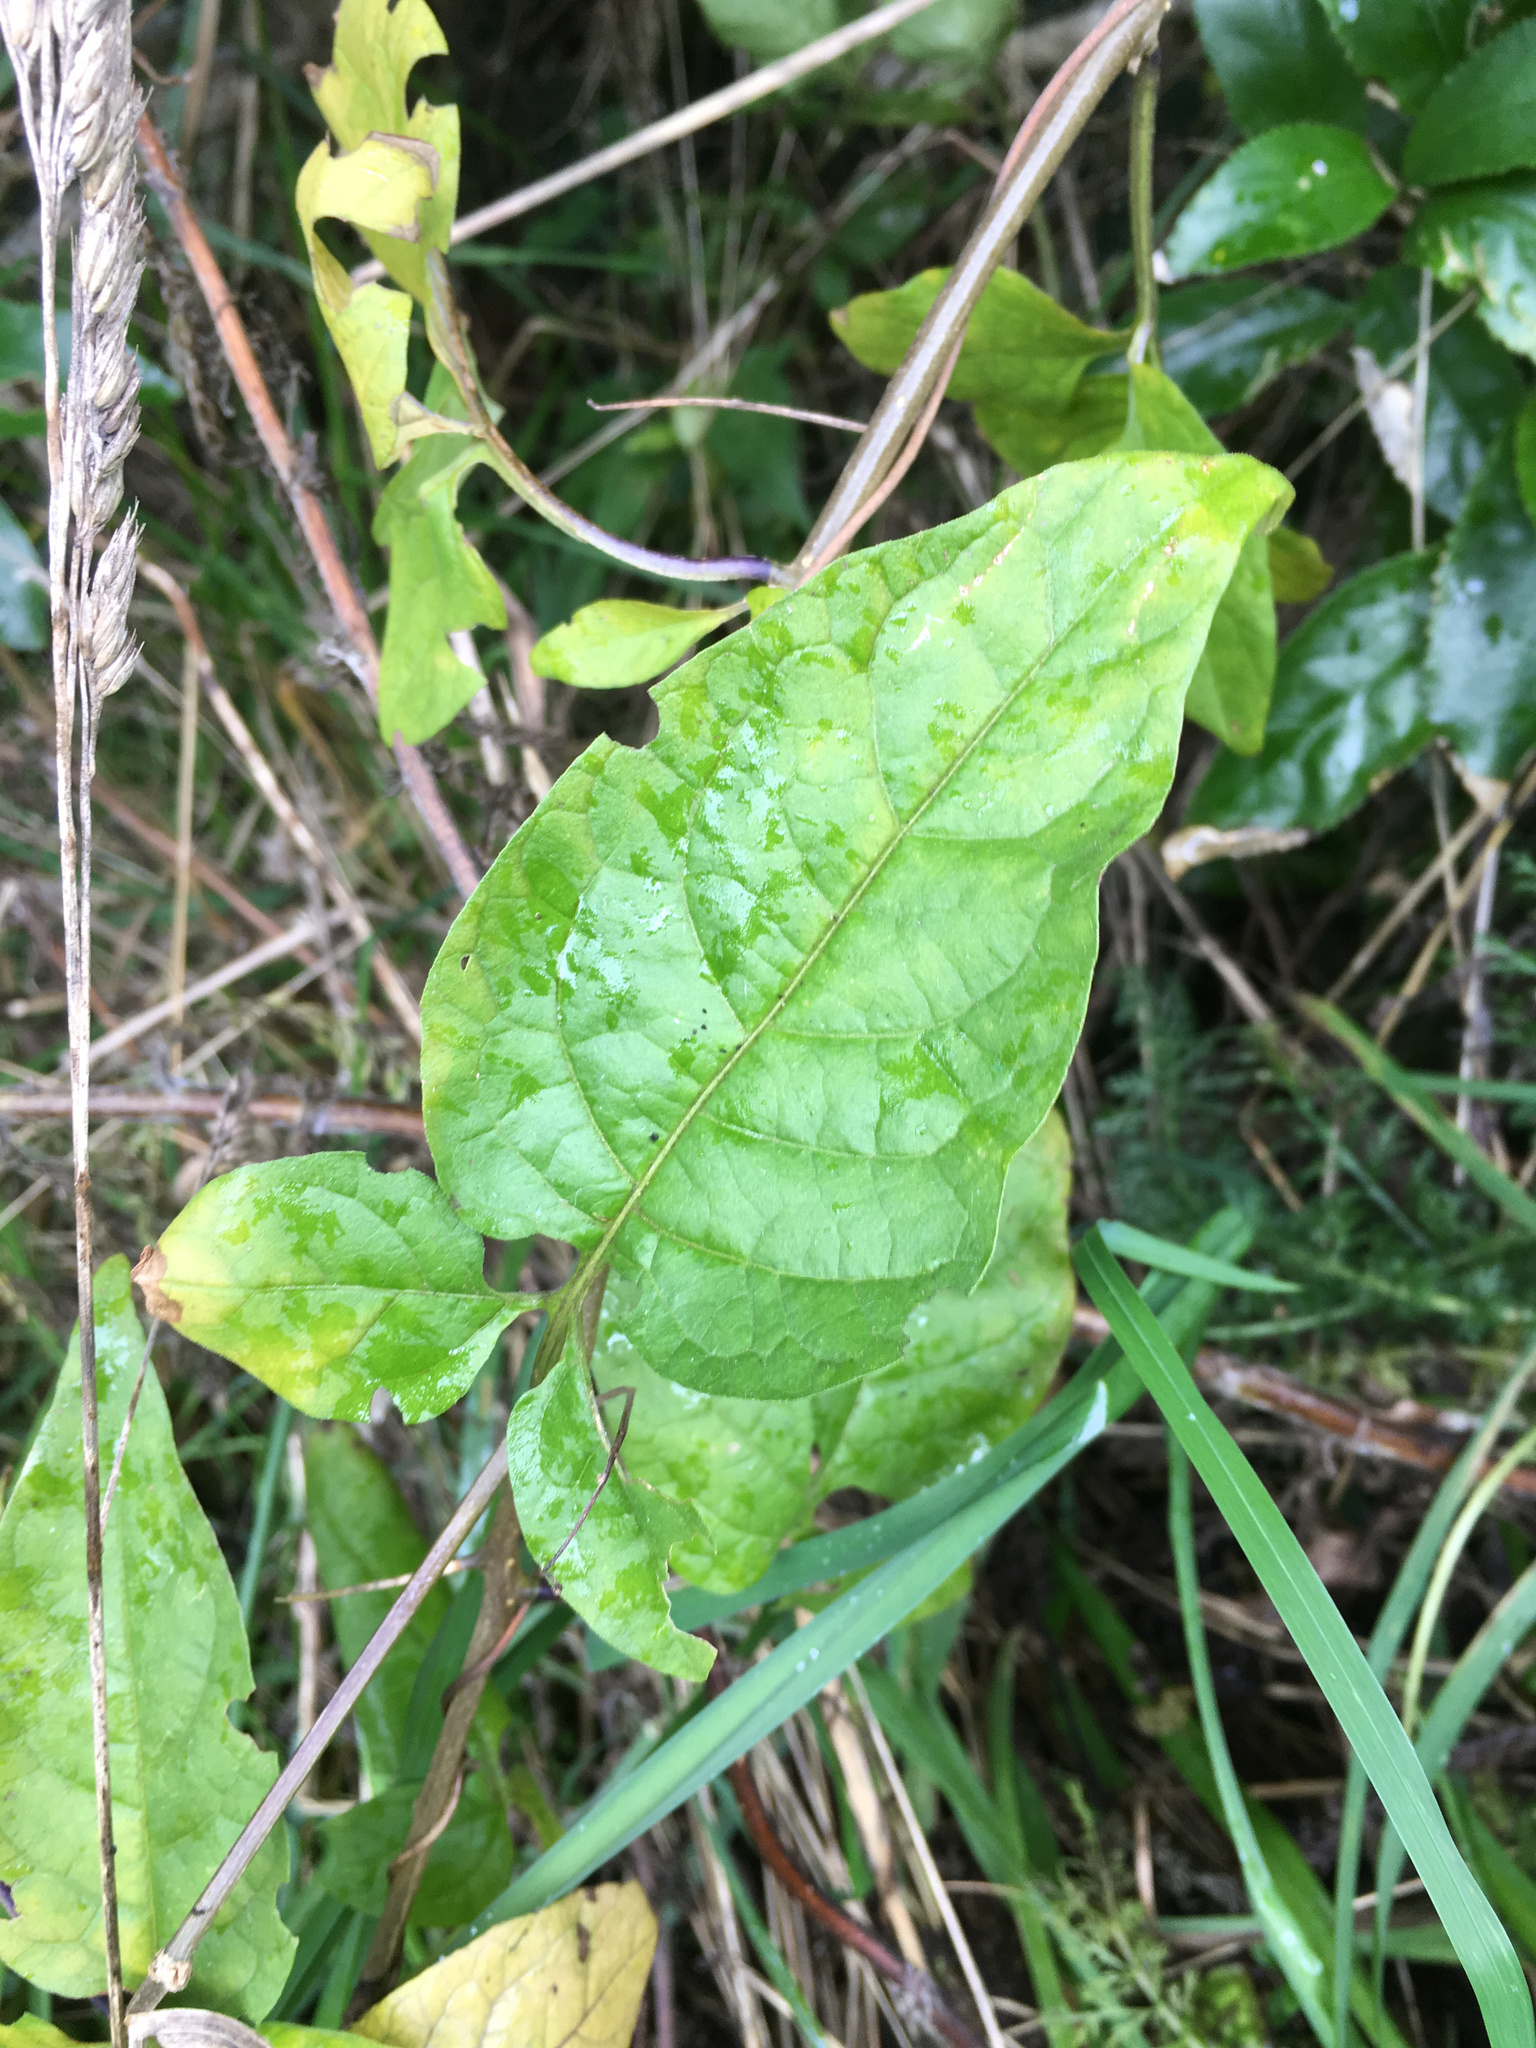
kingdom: Plantae
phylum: Tracheophyta
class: Magnoliopsida
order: Solanales
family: Solanaceae
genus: Solanum
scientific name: Solanum dulcamara
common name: Climbing nightshade
